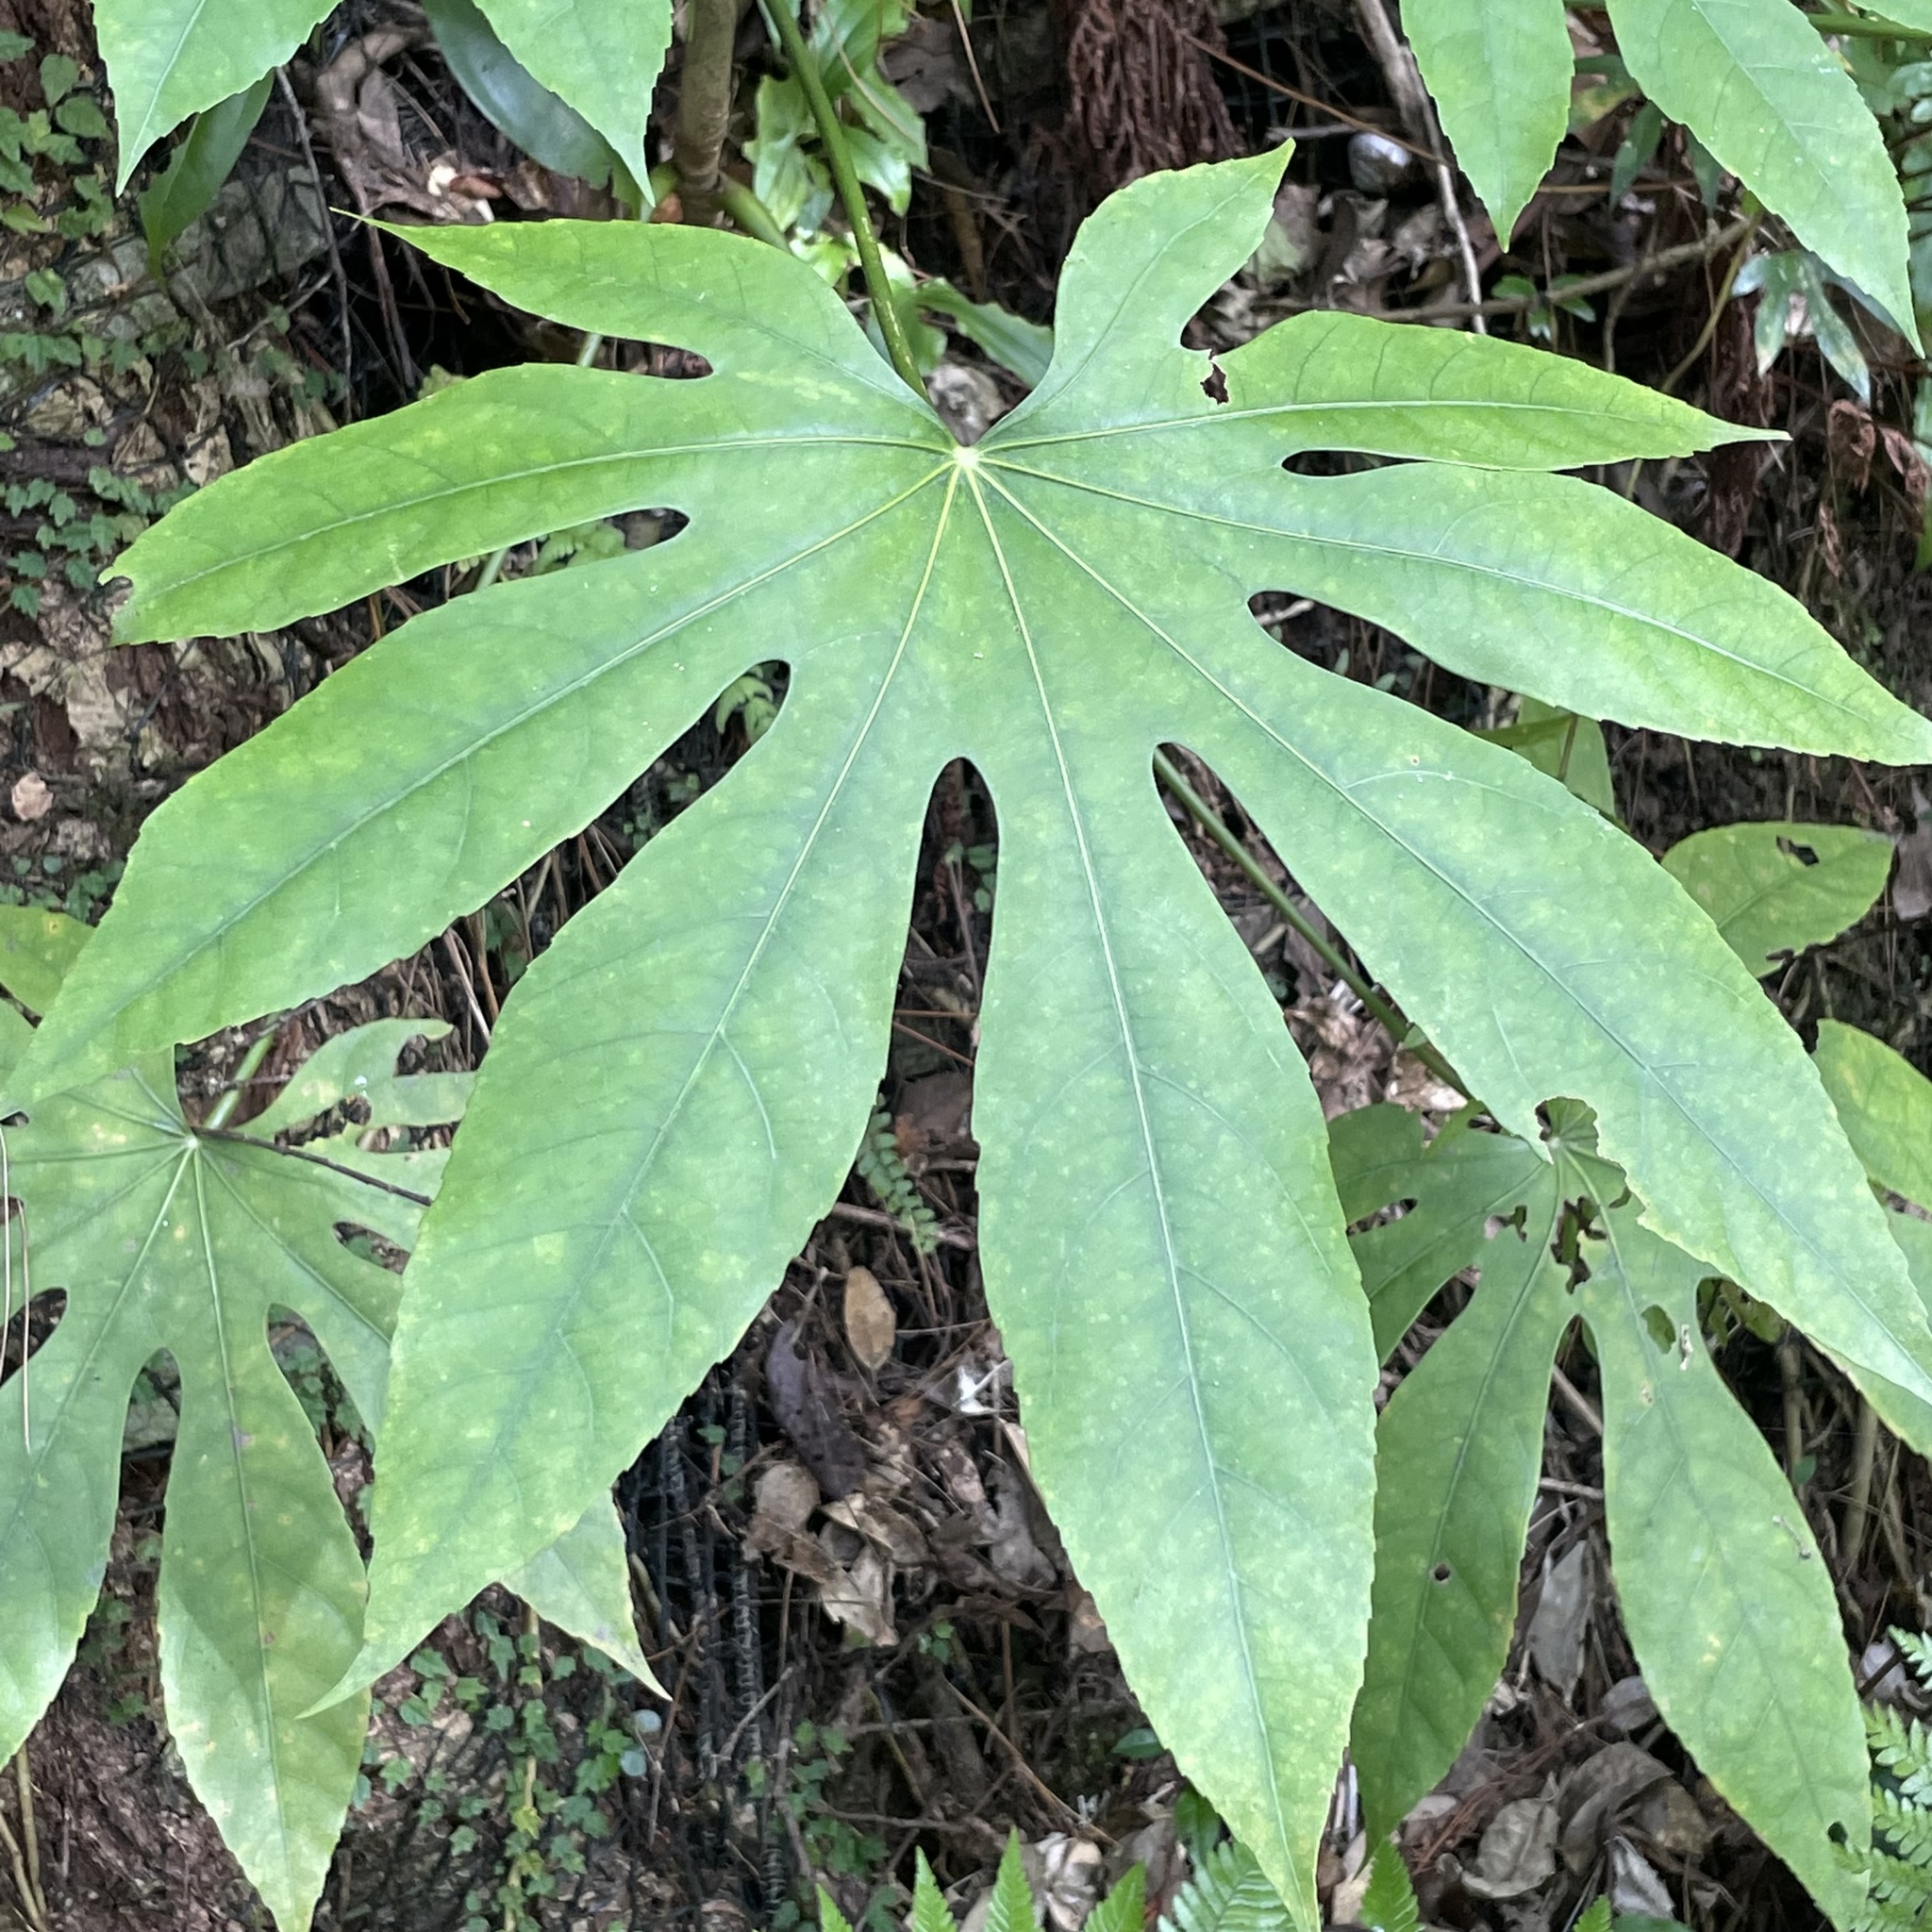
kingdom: Plantae
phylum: Tracheophyta
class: Magnoliopsida
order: Apiales
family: Araliaceae
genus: Fatsia
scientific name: Fatsia japonica
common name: Fatsia
